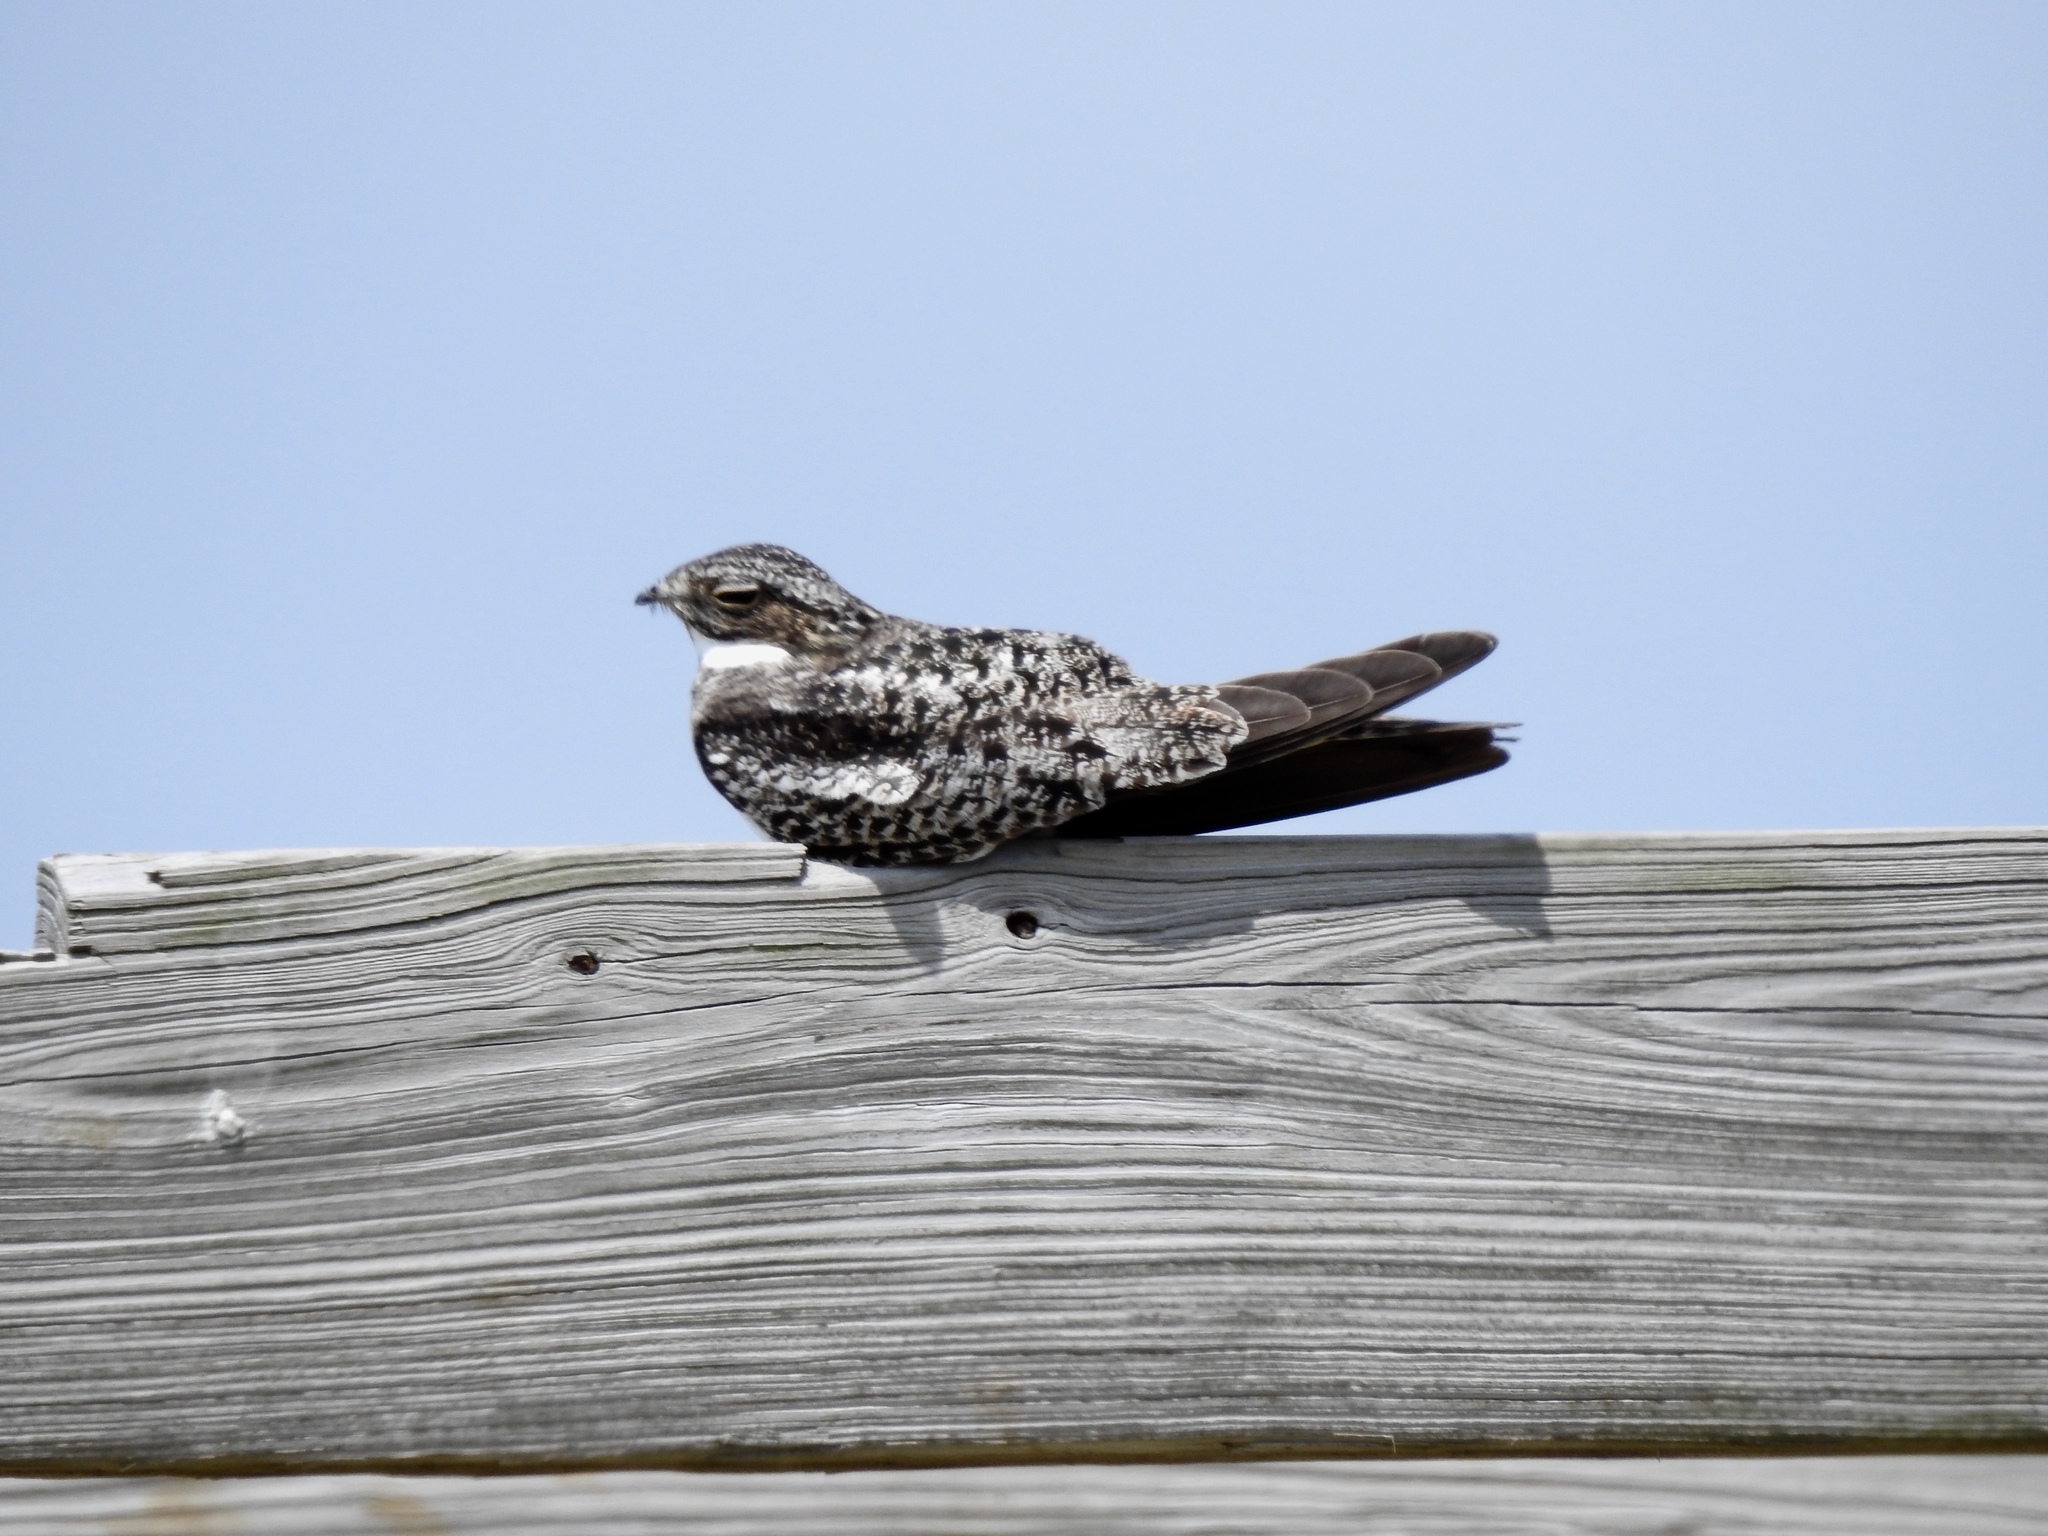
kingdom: Animalia
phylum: Chordata
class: Aves
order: Caprimulgiformes
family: Caprimulgidae
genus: Chordeiles
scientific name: Chordeiles minor
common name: Common nighthawk
